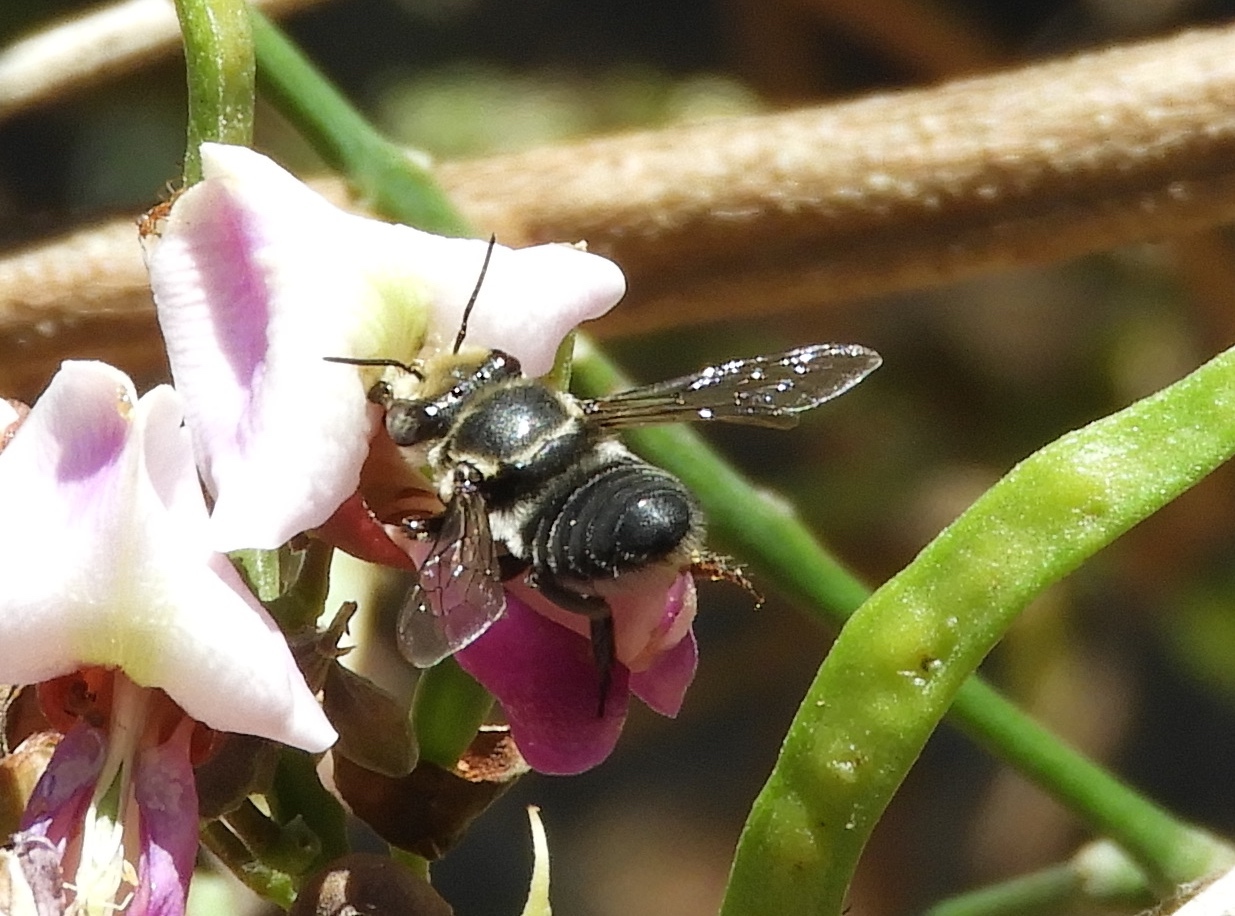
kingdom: Animalia
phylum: Arthropoda
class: Insecta
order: Hymenoptera
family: Megachilidae
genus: Megachile
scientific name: Megachile
